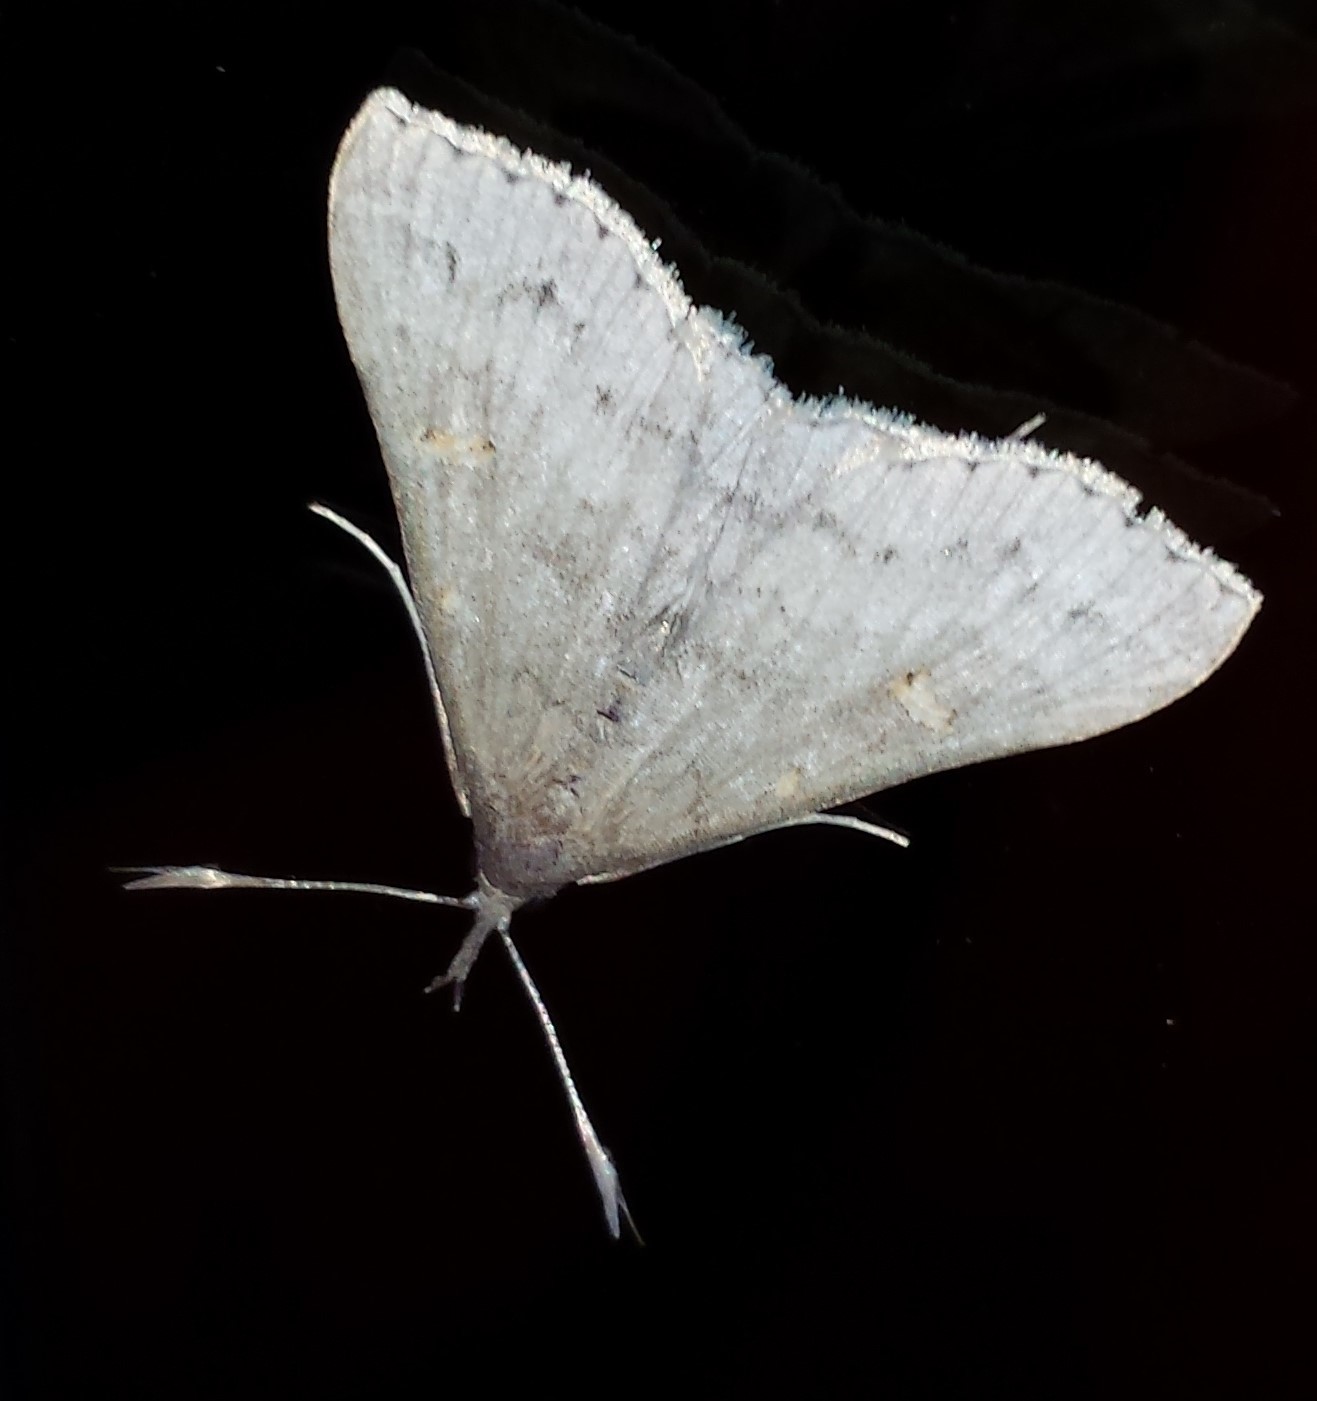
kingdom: Animalia
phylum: Arthropoda
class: Insecta
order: Lepidoptera
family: Erebidae
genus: Renia
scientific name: Renia adspergillus
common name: Speckled renia moth
